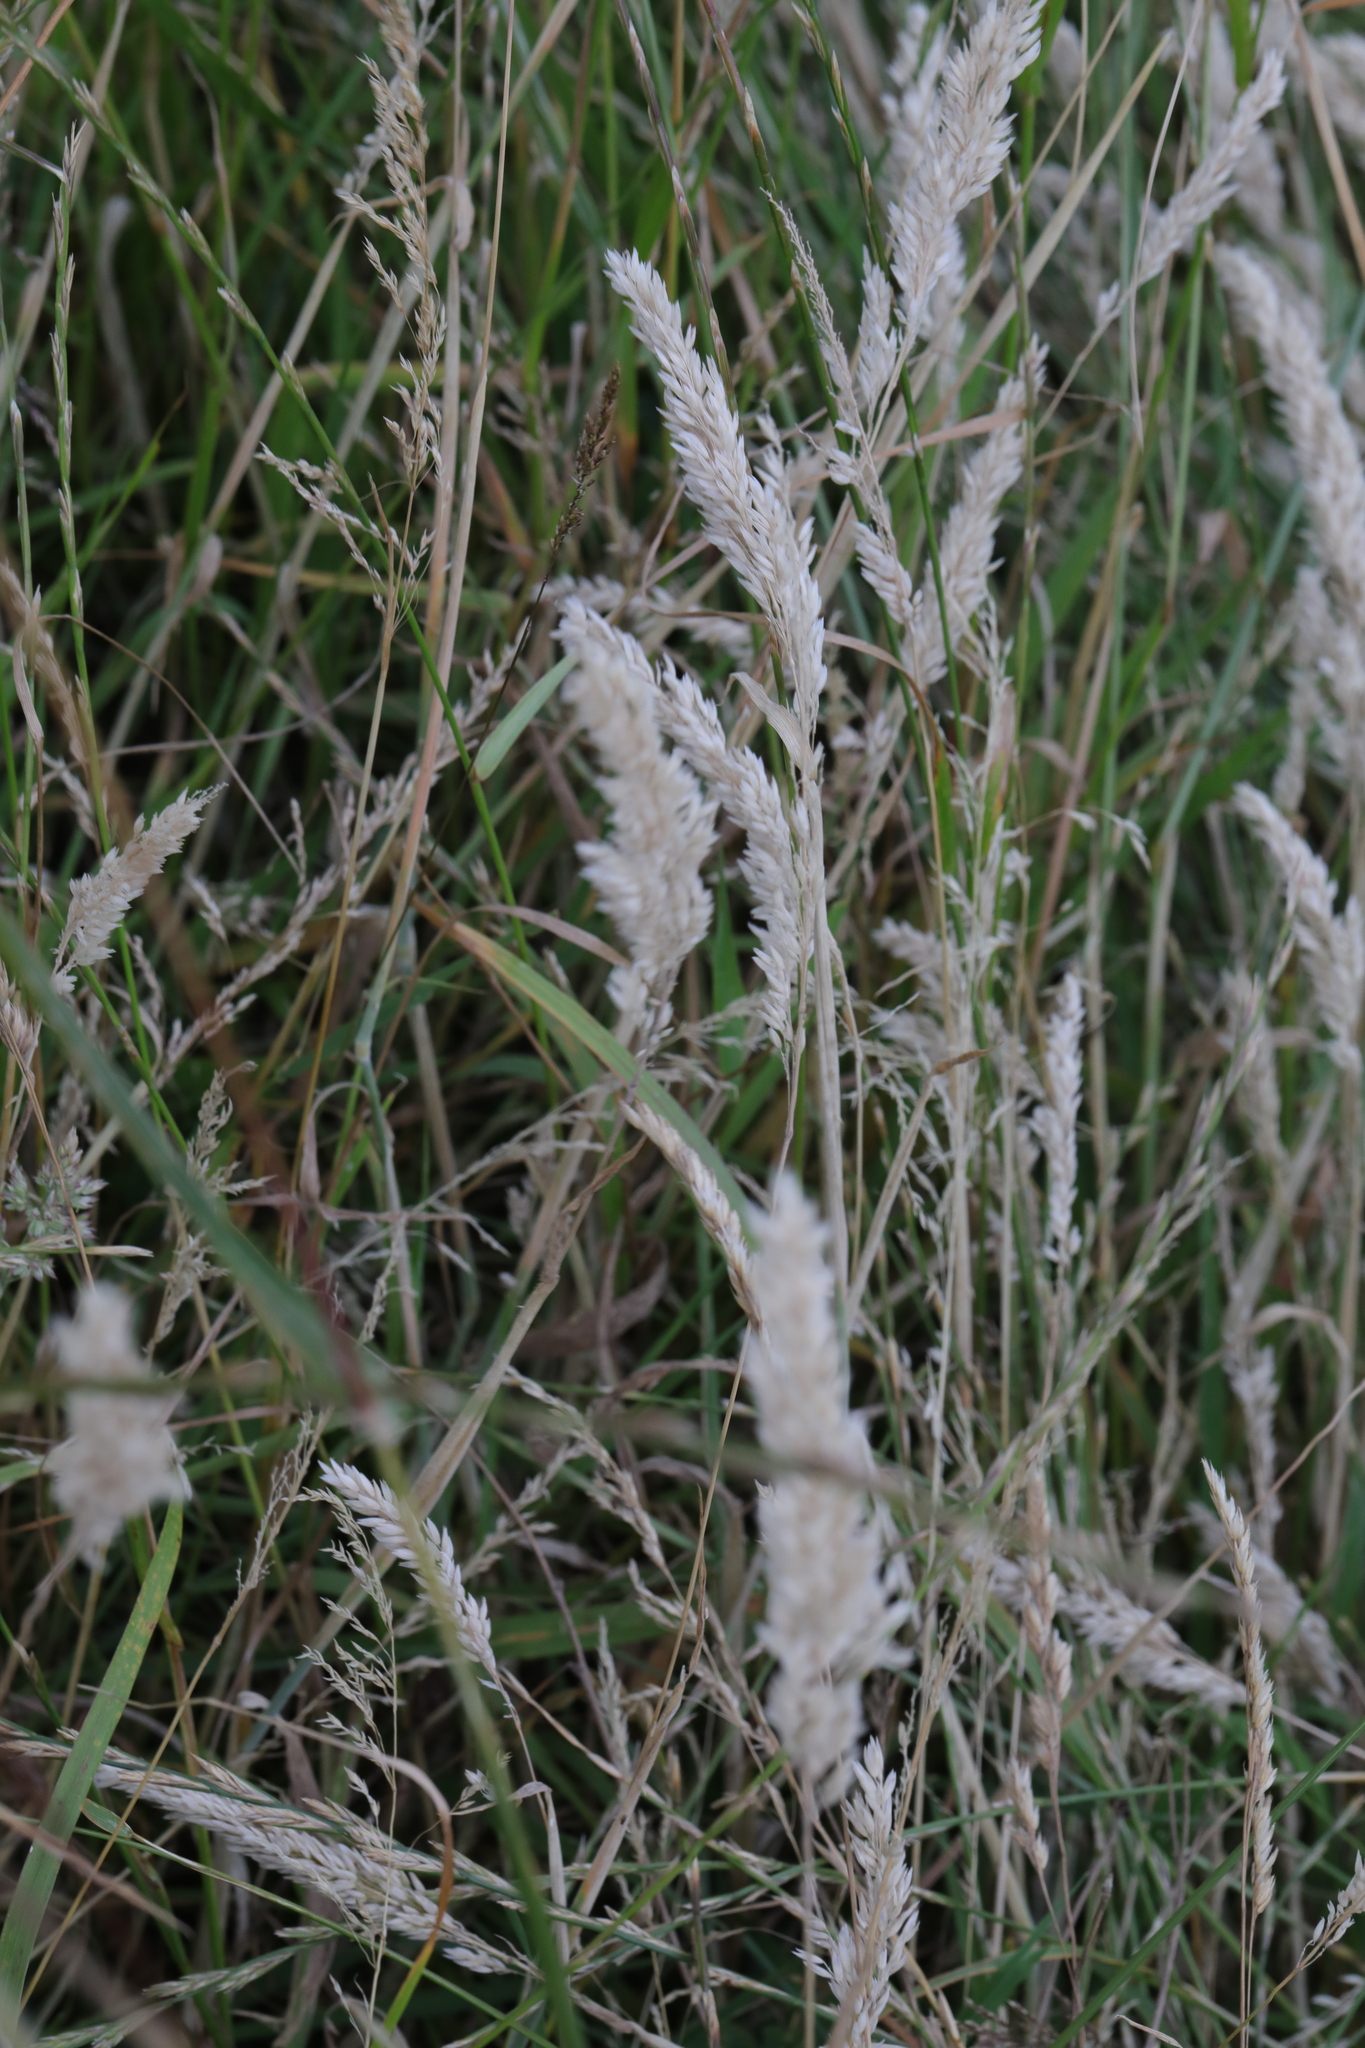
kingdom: Plantae
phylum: Tracheophyta
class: Liliopsida
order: Poales
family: Poaceae
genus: Holcus
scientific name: Holcus lanatus
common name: Yorkshire-fog
